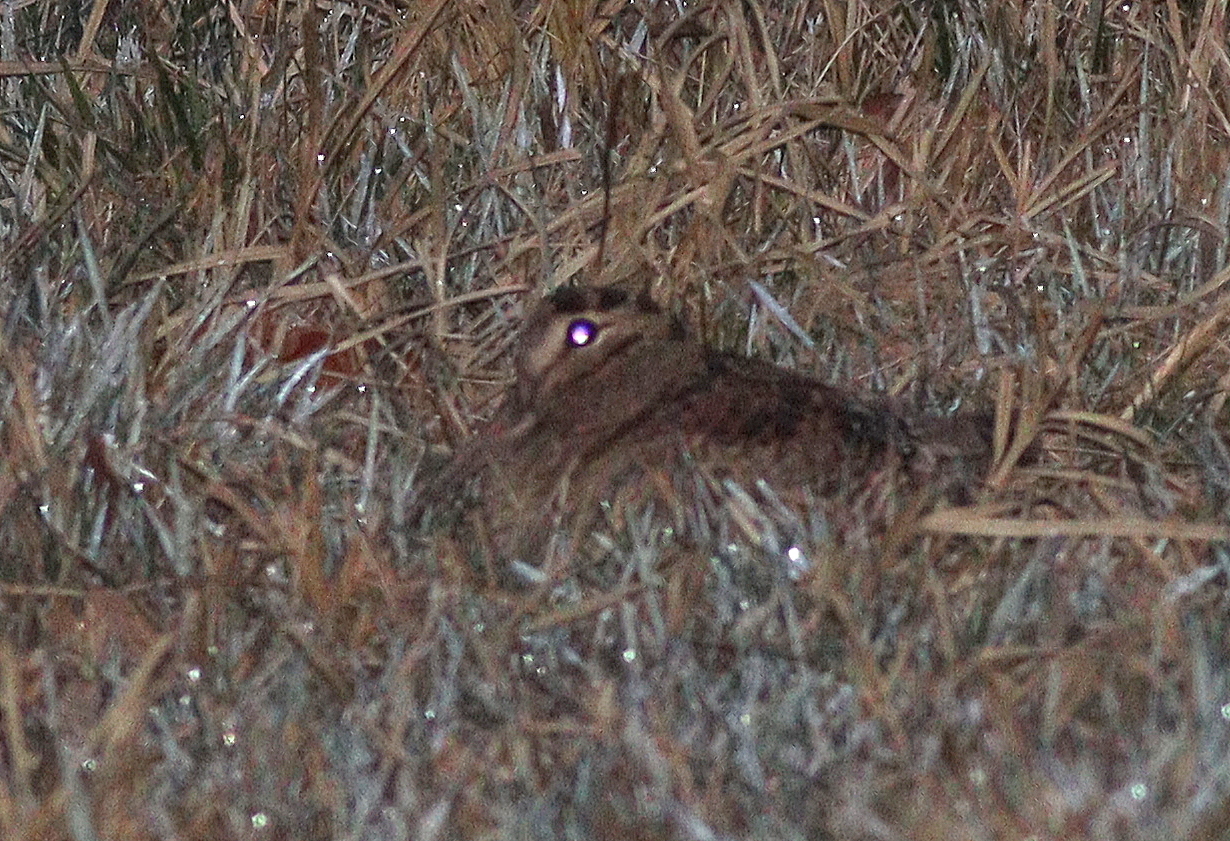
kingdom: Animalia
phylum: Chordata
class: Aves
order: Charadriiformes
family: Scolopacidae
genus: Scolopax
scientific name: Scolopax rusticola
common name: Eurasian woodcock
